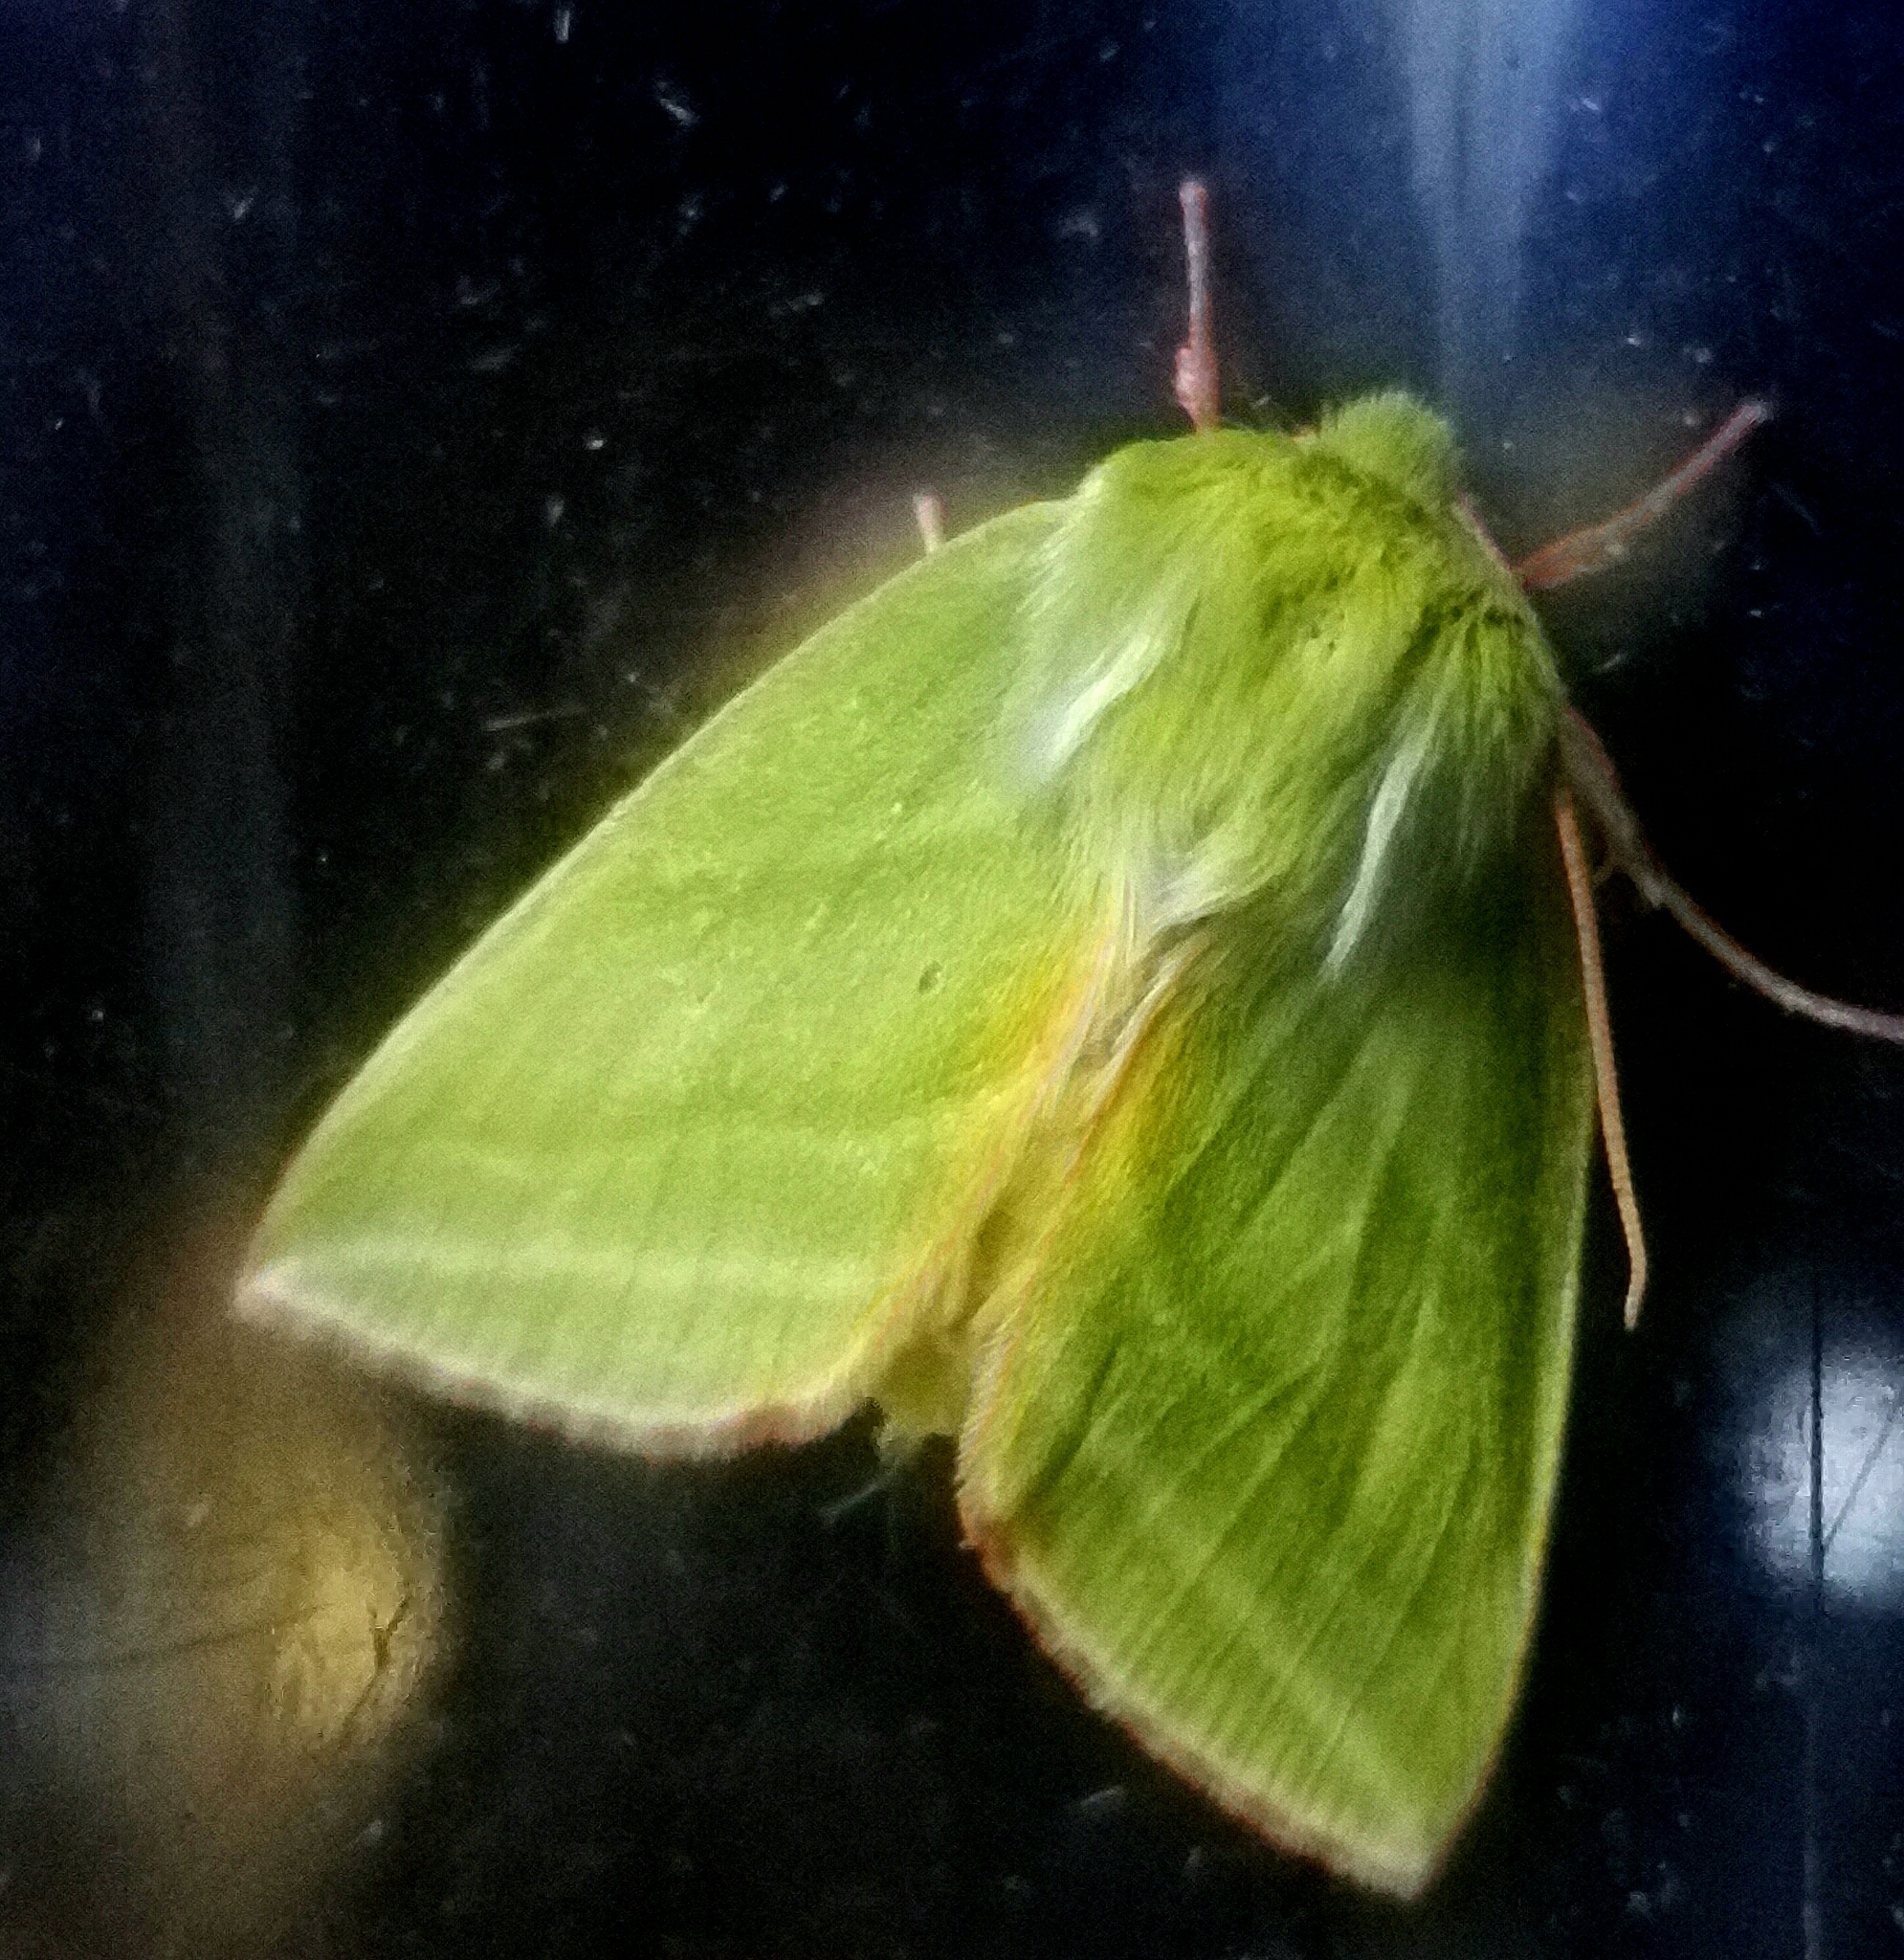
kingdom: Animalia
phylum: Arthropoda
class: Insecta
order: Lepidoptera
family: Nolidae
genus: Pseudoips
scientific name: Pseudoips prasinana
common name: Green silver-lines
